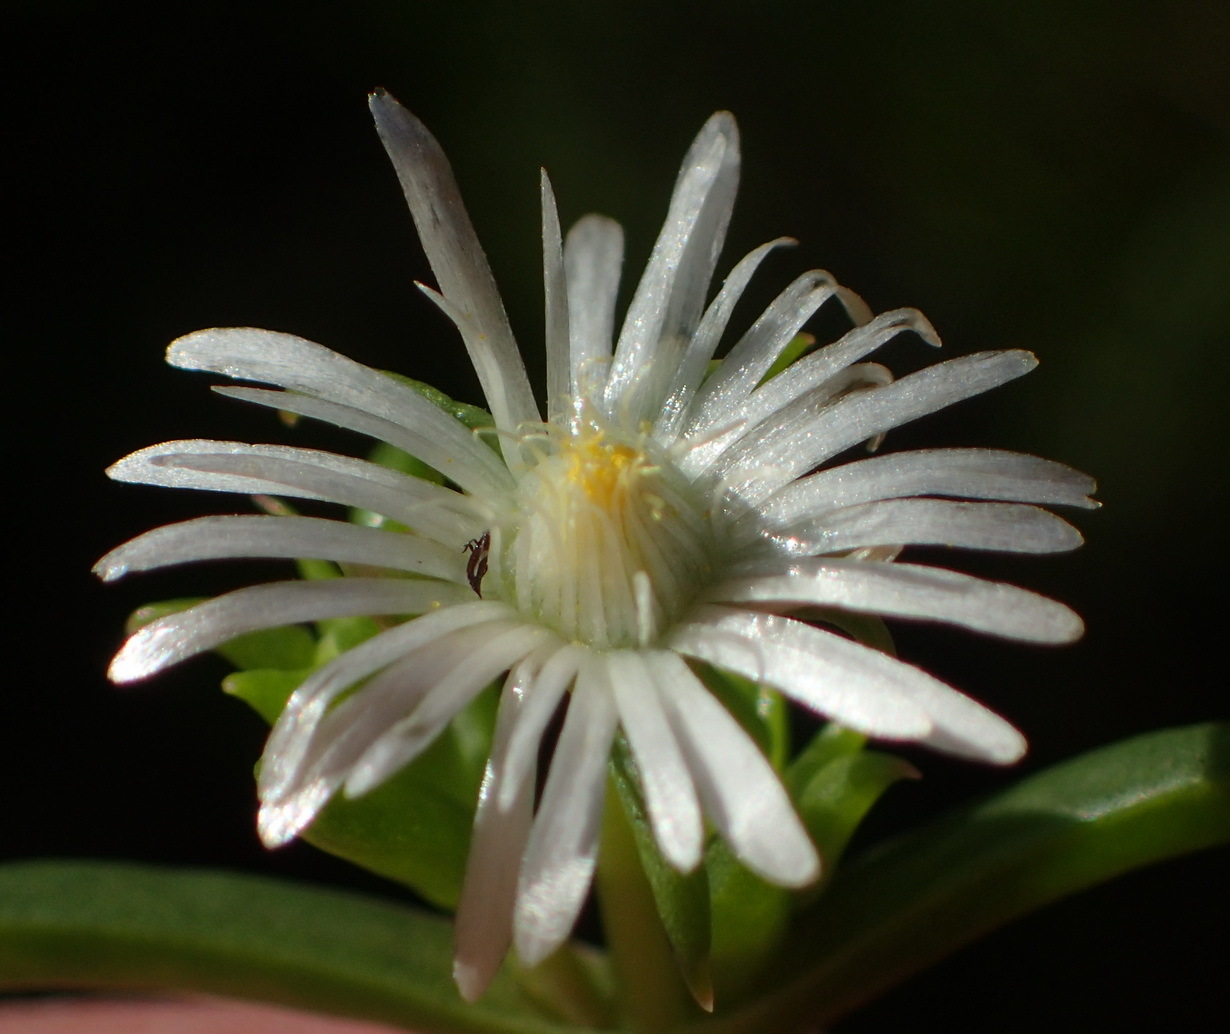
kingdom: Plantae
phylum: Tracheophyta
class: Magnoliopsida
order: Caryophyllales
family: Aizoaceae
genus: Delosperma
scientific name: Delosperma inconspicuum
